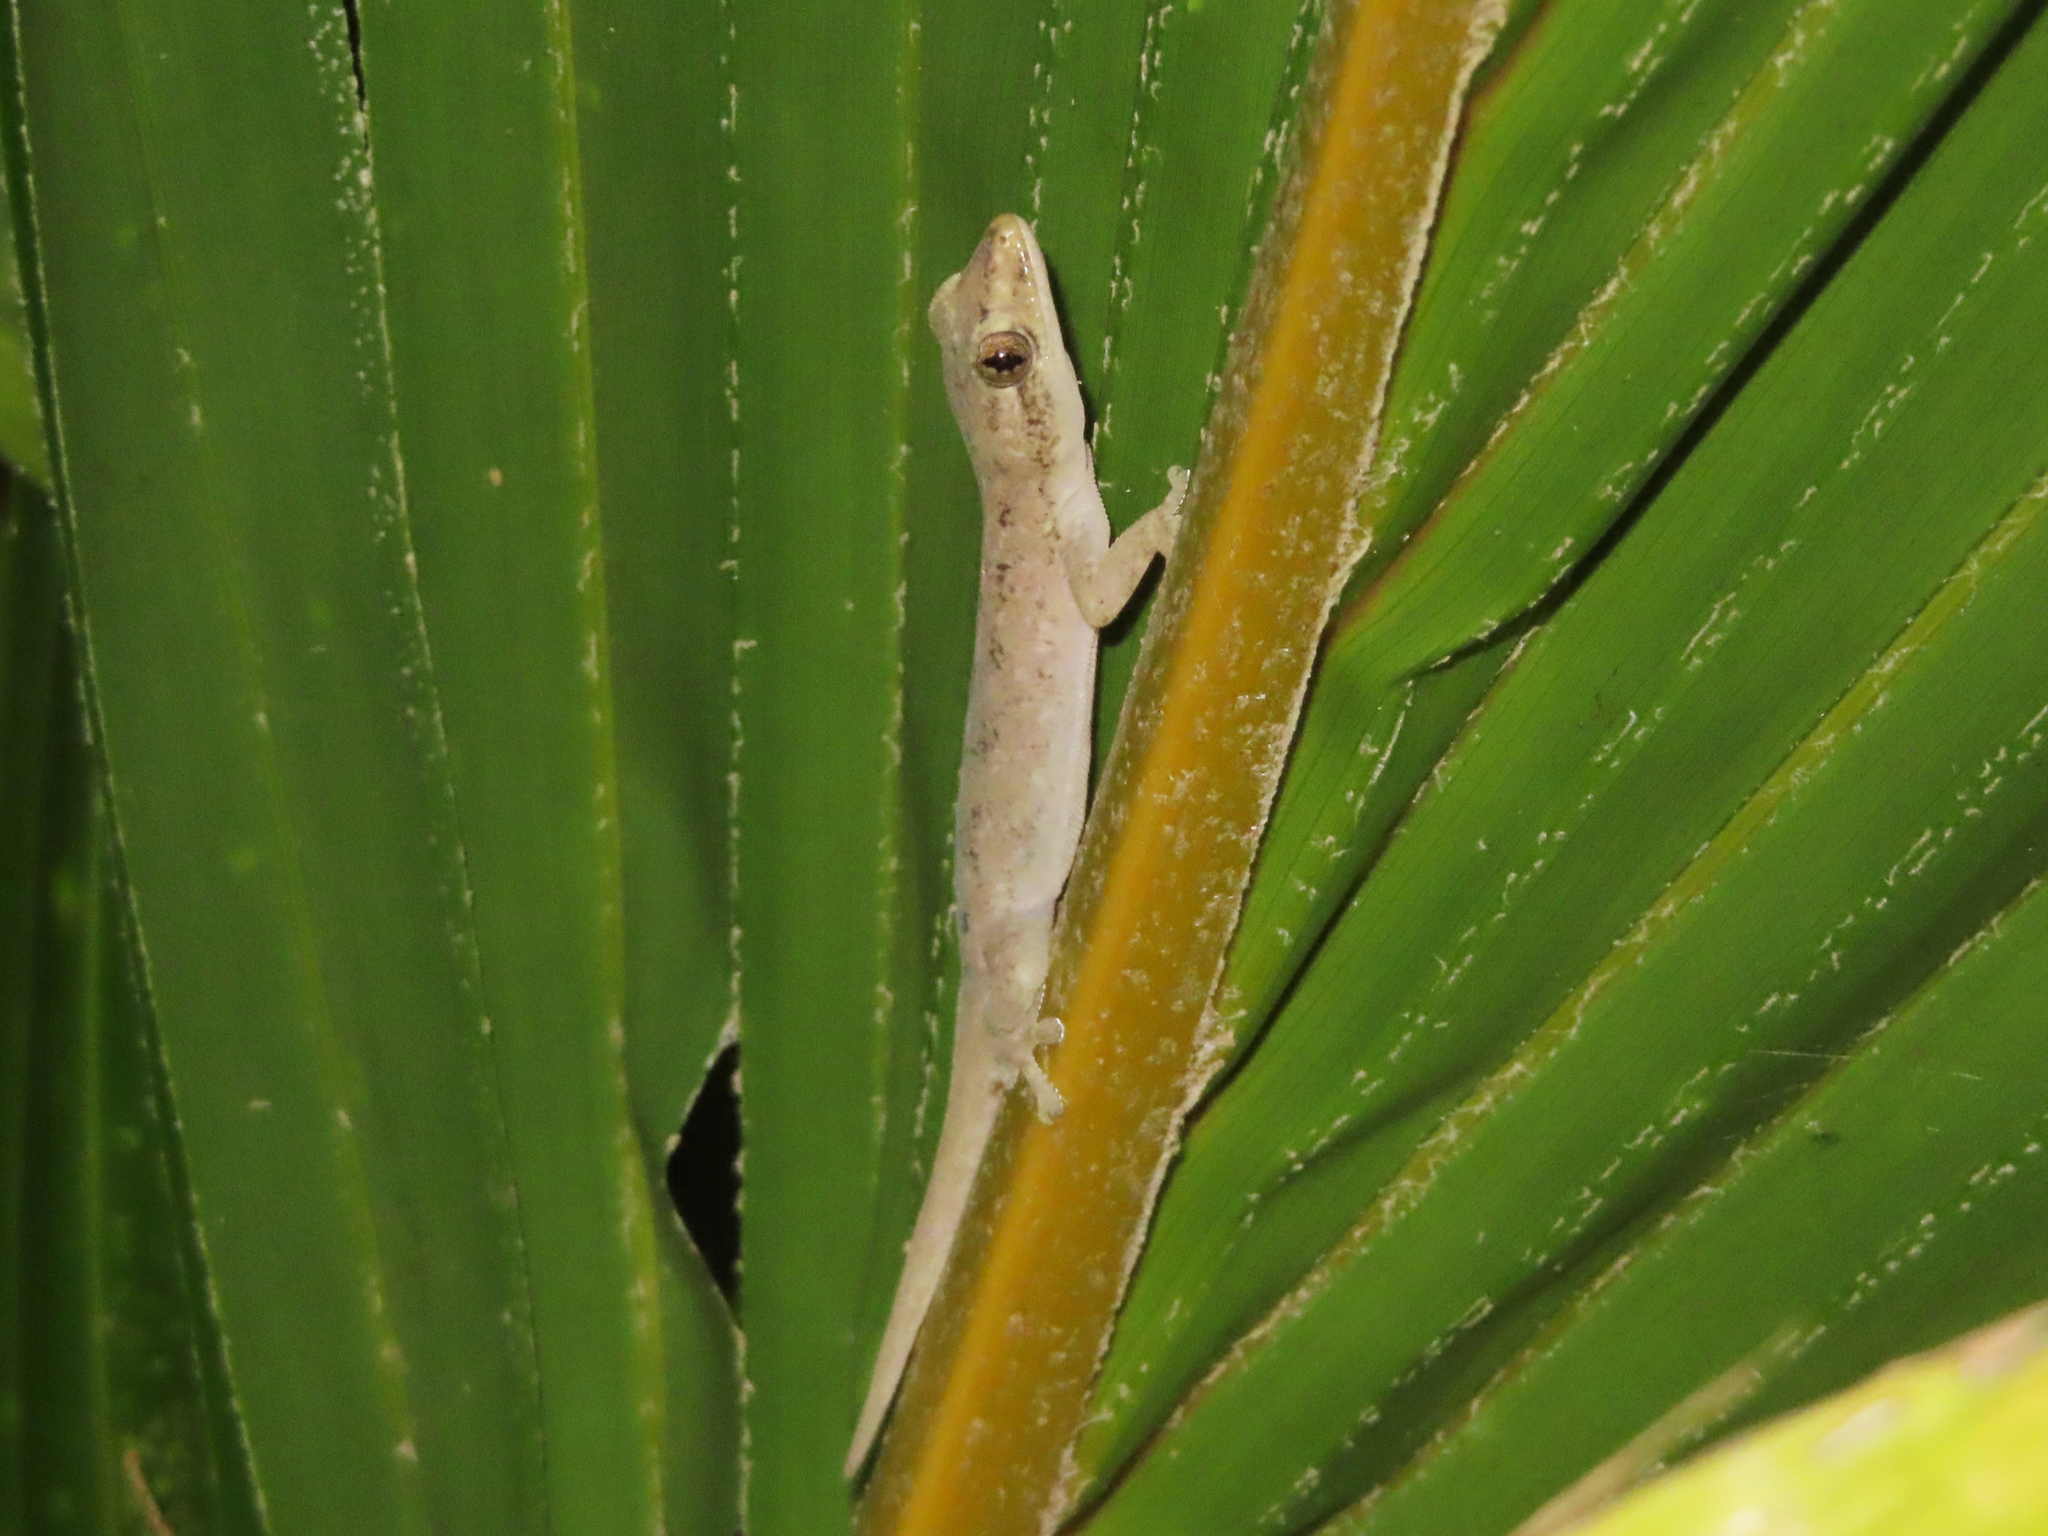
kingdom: Animalia
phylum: Chordata
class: Squamata
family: Gekkonidae
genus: Hemidactylus
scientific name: Hemidactylus frenatus
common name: Common house gecko
